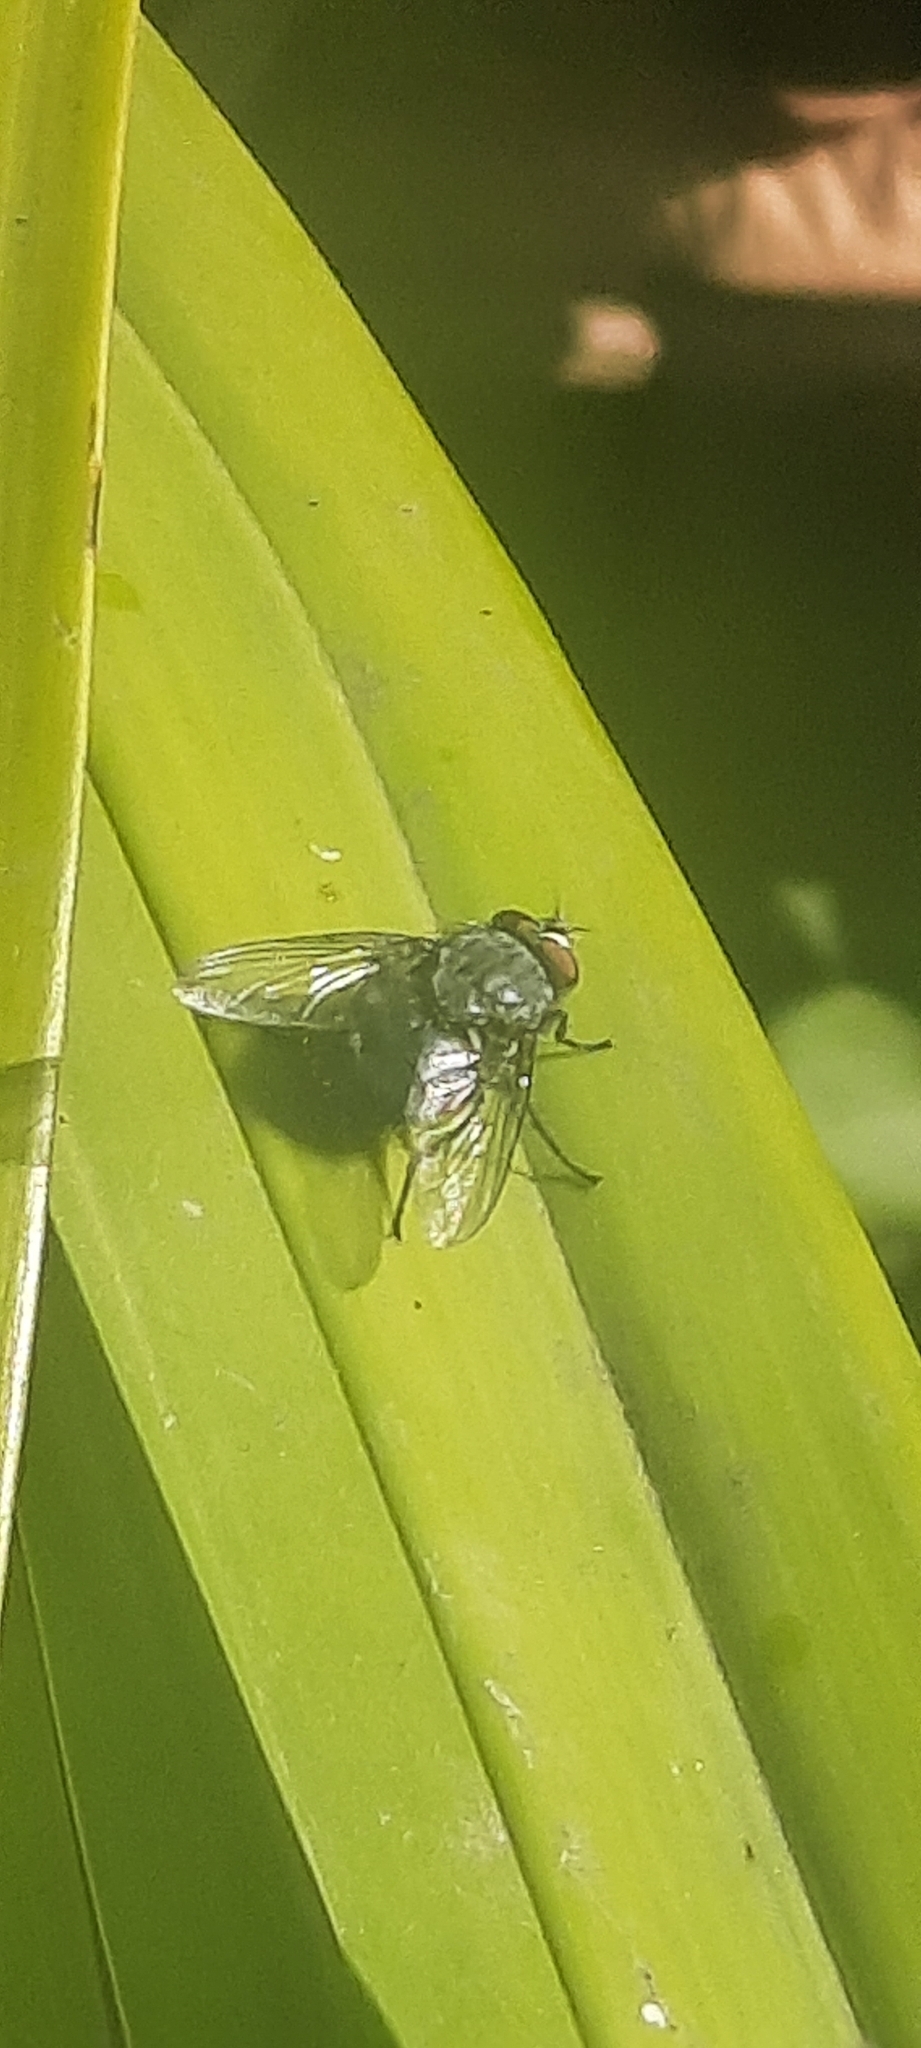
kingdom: Animalia
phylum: Arthropoda
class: Insecta
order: Diptera
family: Calliphoridae
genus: Calliphora
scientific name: Calliphora vicina
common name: Common blow flie
